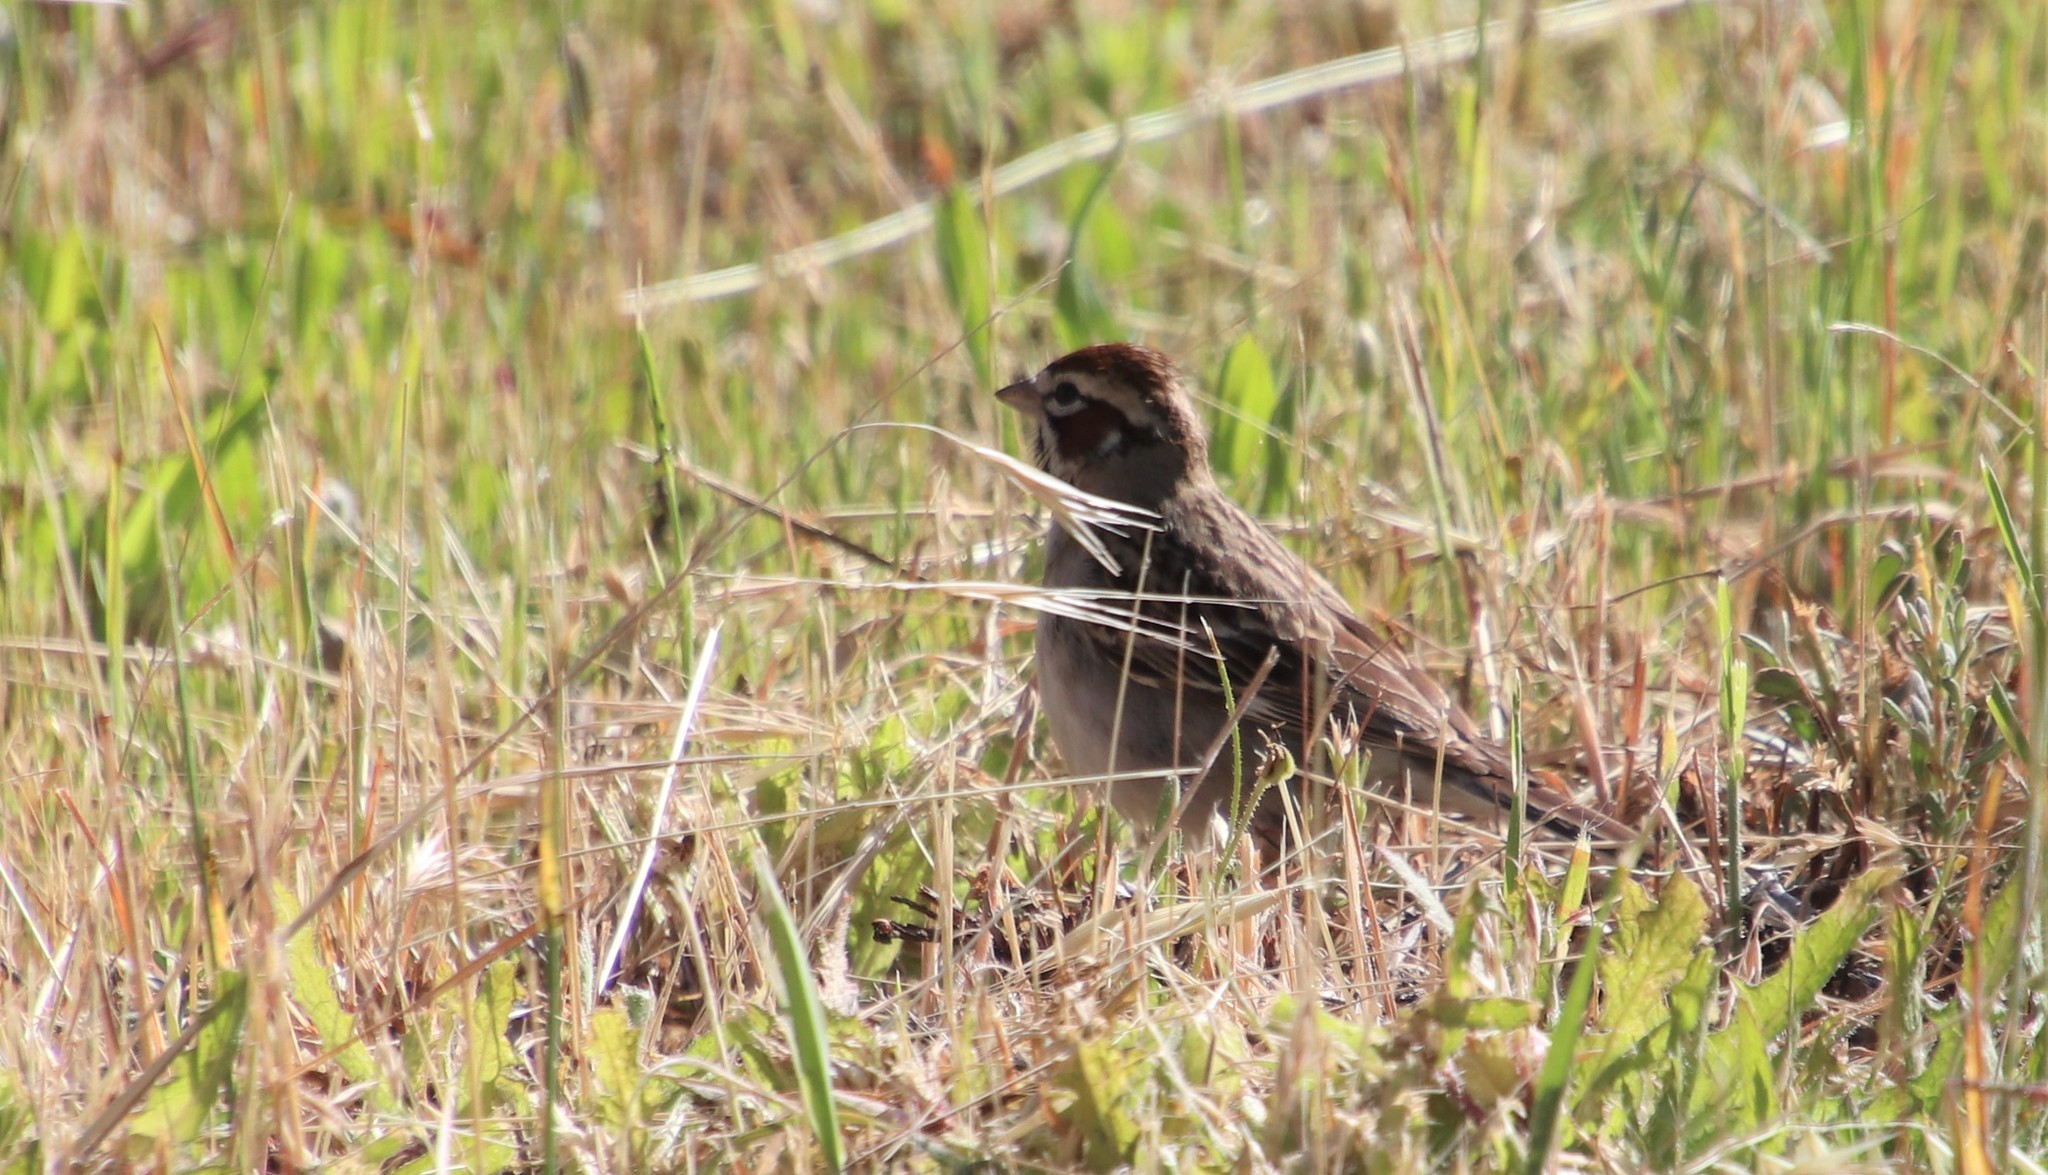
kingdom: Animalia
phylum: Chordata
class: Aves
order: Passeriformes
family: Passerellidae
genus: Chondestes
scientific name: Chondestes grammacus
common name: Lark sparrow
